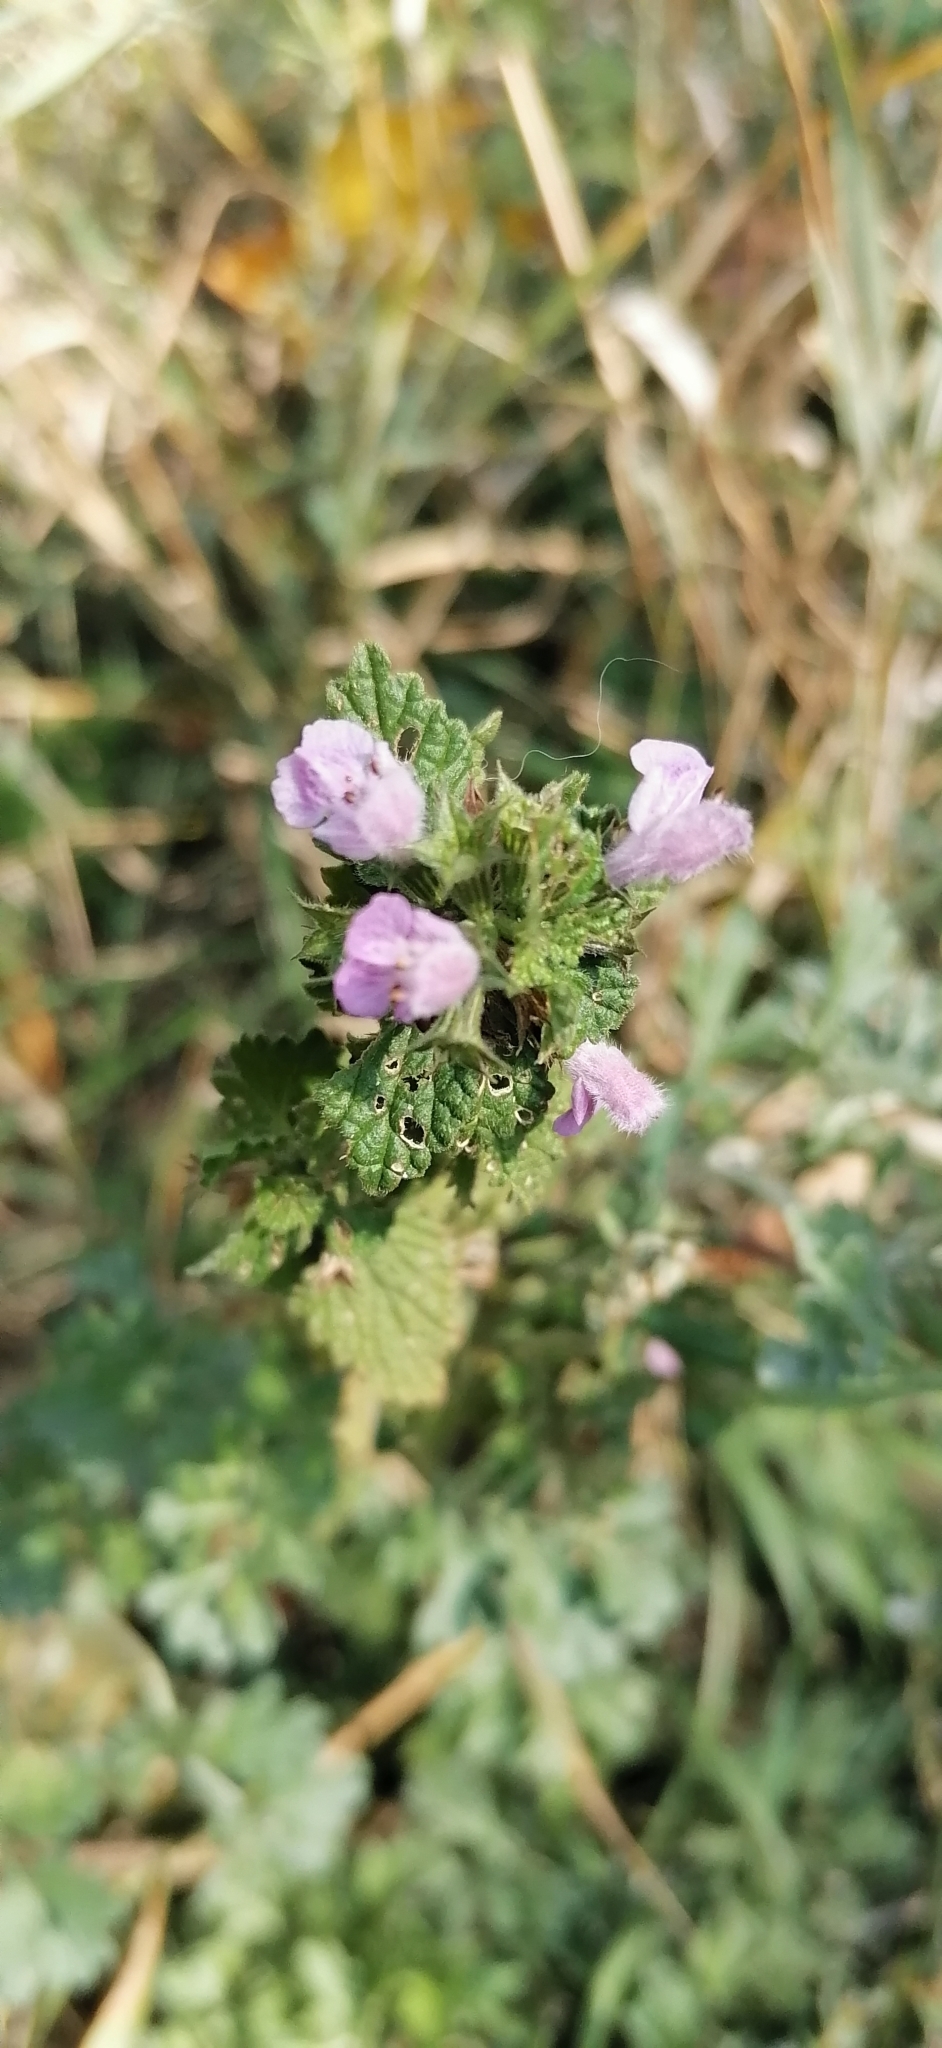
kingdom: Plantae
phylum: Tracheophyta
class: Magnoliopsida
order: Lamiales
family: Lamiaceae
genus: Ballota
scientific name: Ballota nigra
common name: Black horehound
